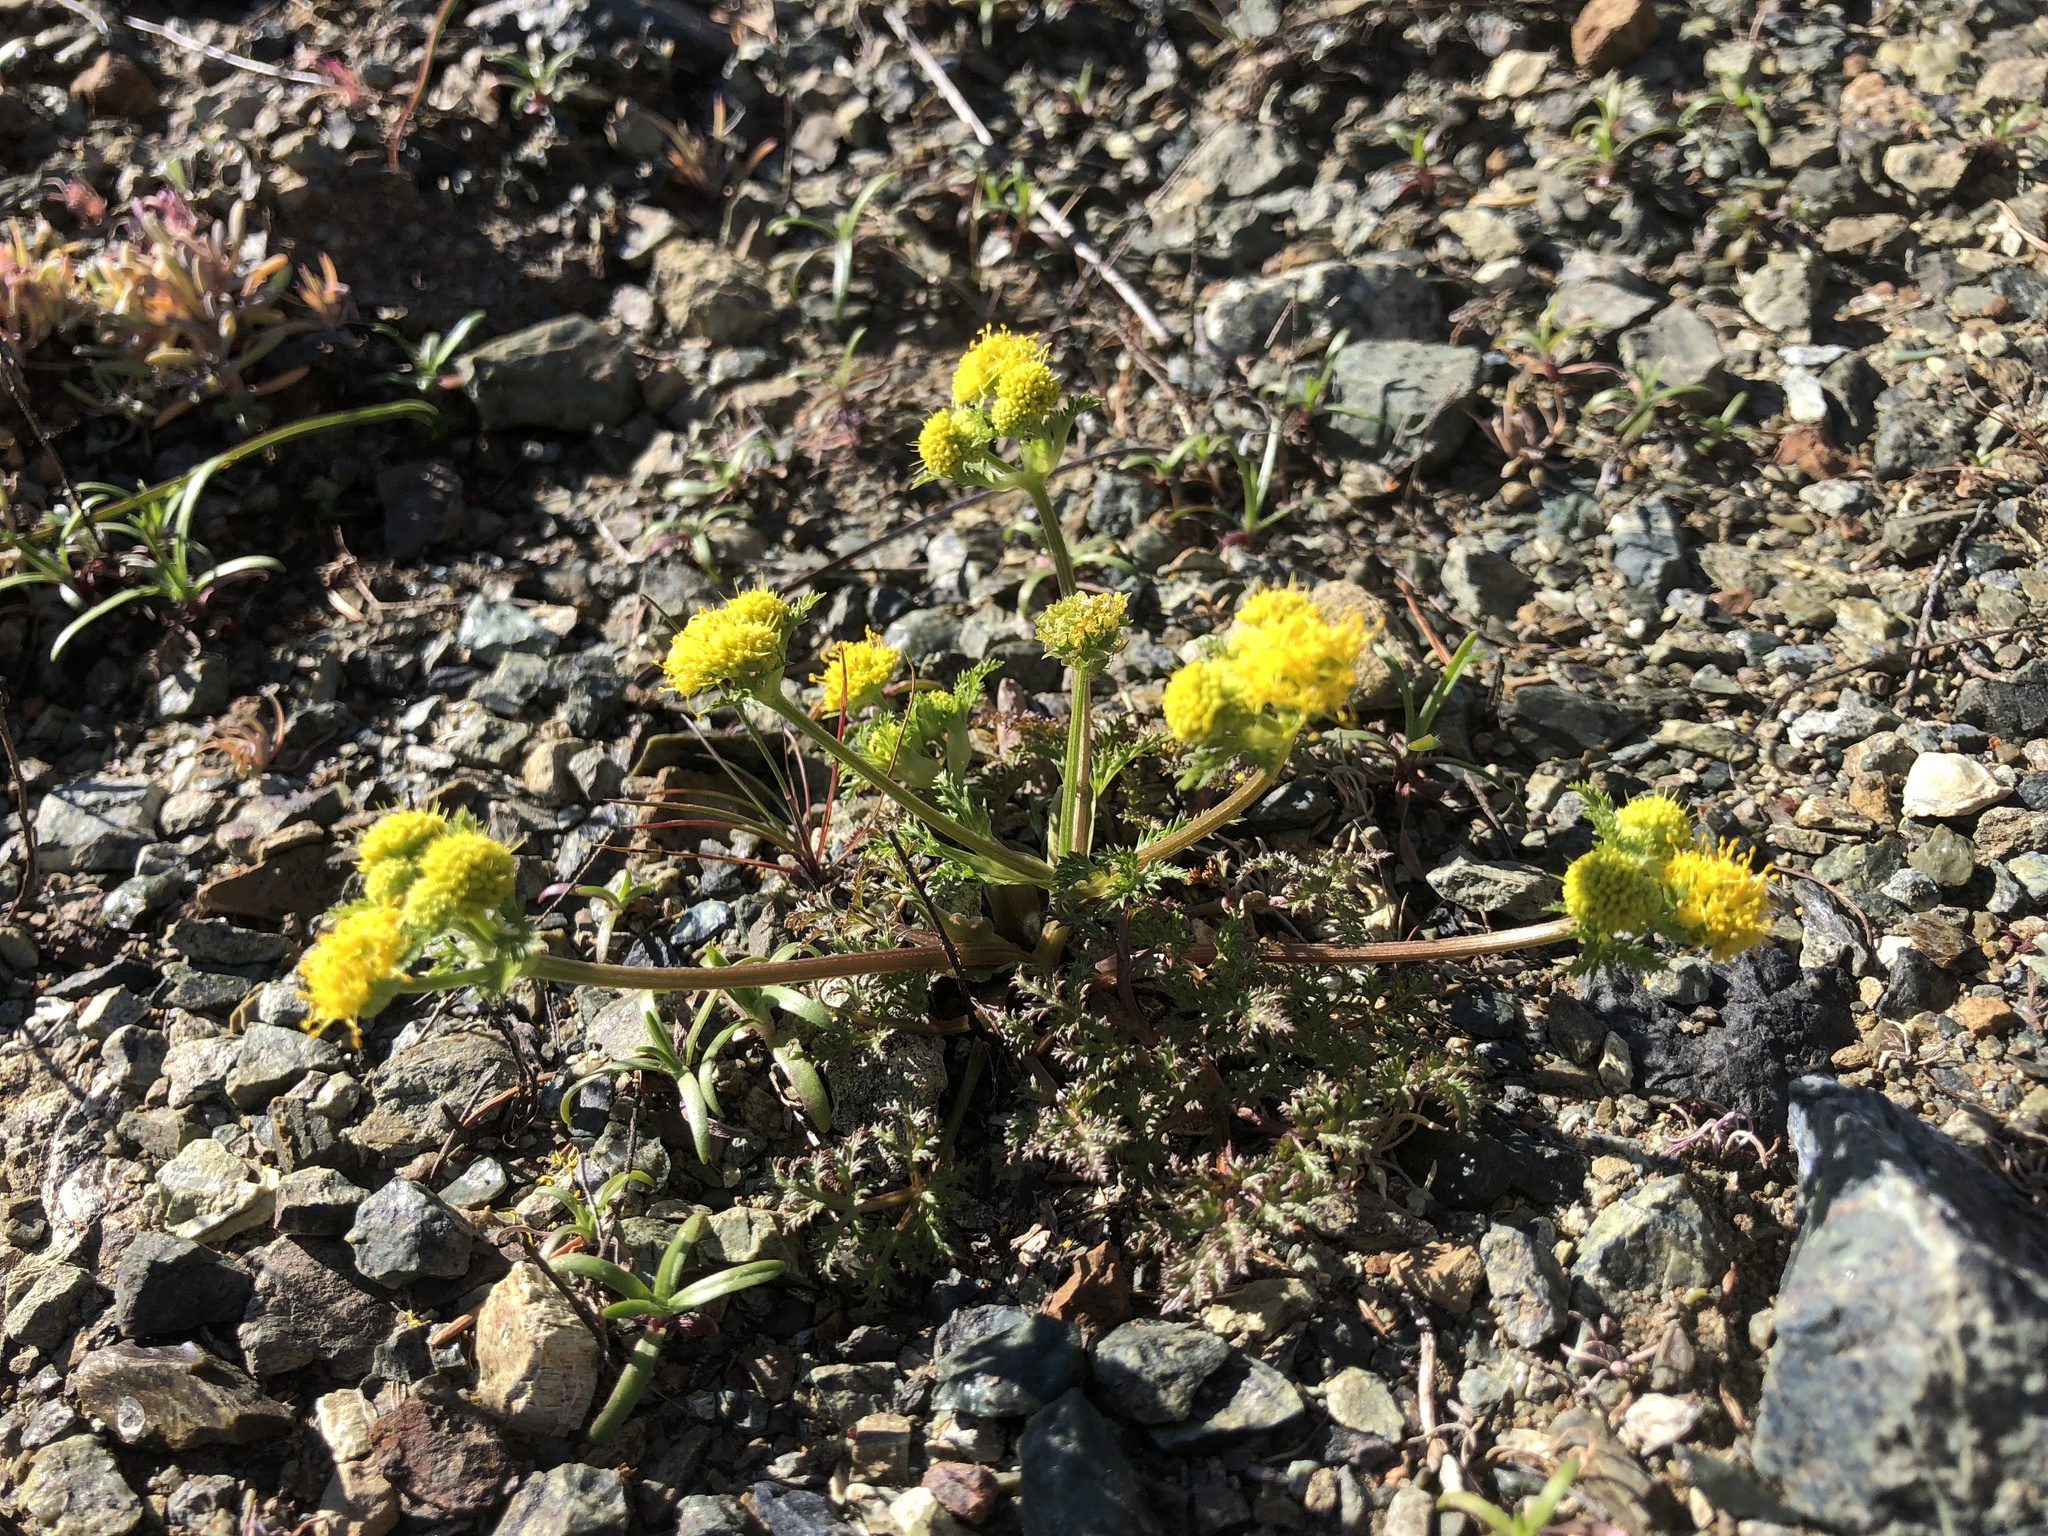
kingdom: Plantae
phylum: Tracheophyta
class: Magnoliopsida
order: Apiales
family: Apiaceae
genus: Sanicula
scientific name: Sanicula tuberosa
